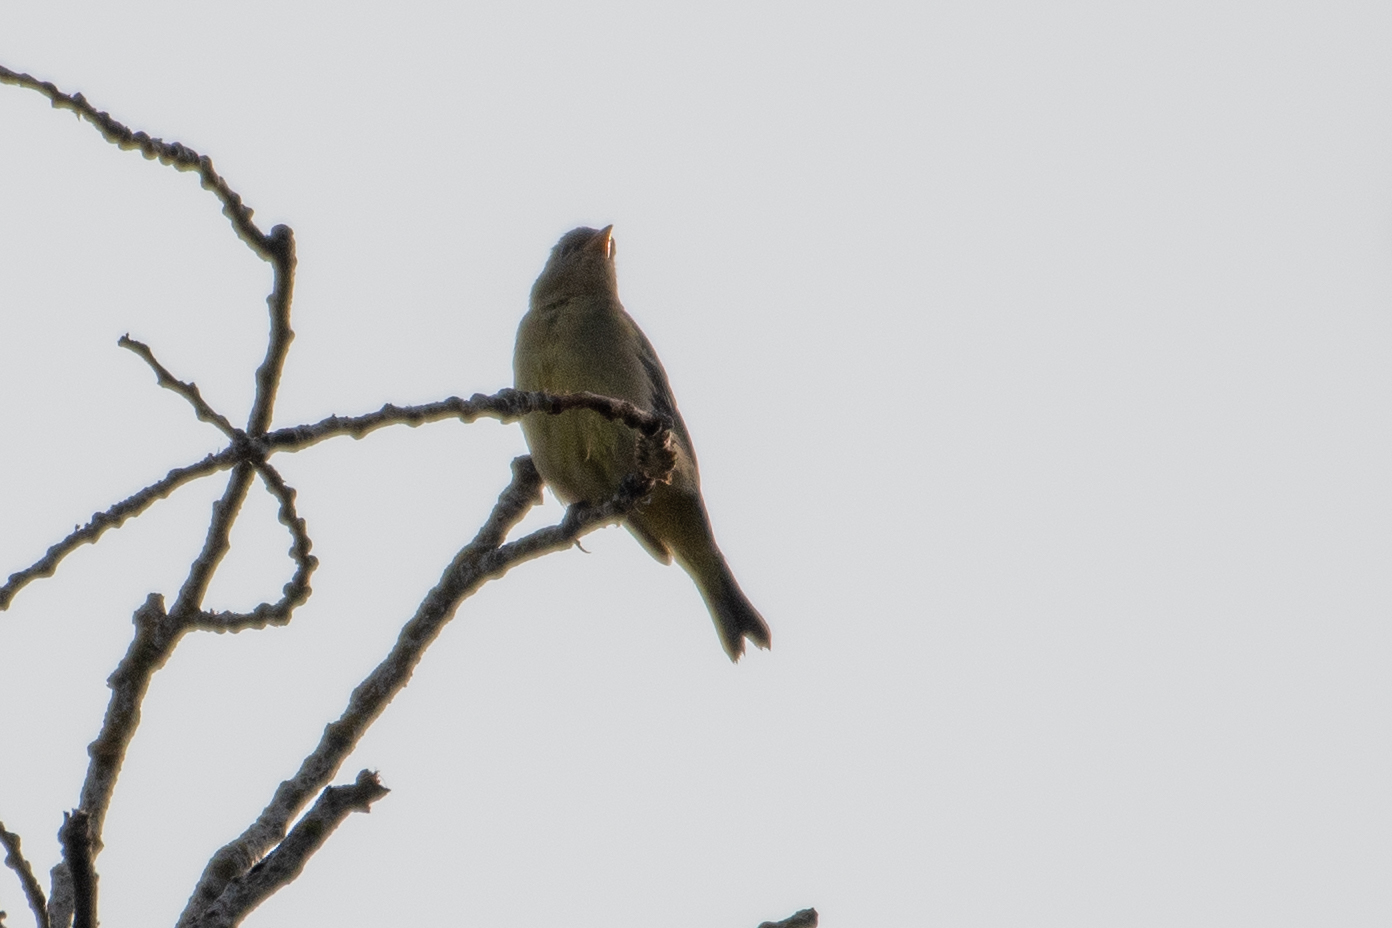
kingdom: Animalia
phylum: Chordata
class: Aves
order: Passeriformes
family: Cardinalidae
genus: Piranga
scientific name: Piranga ludoviciana
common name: Western tanager
